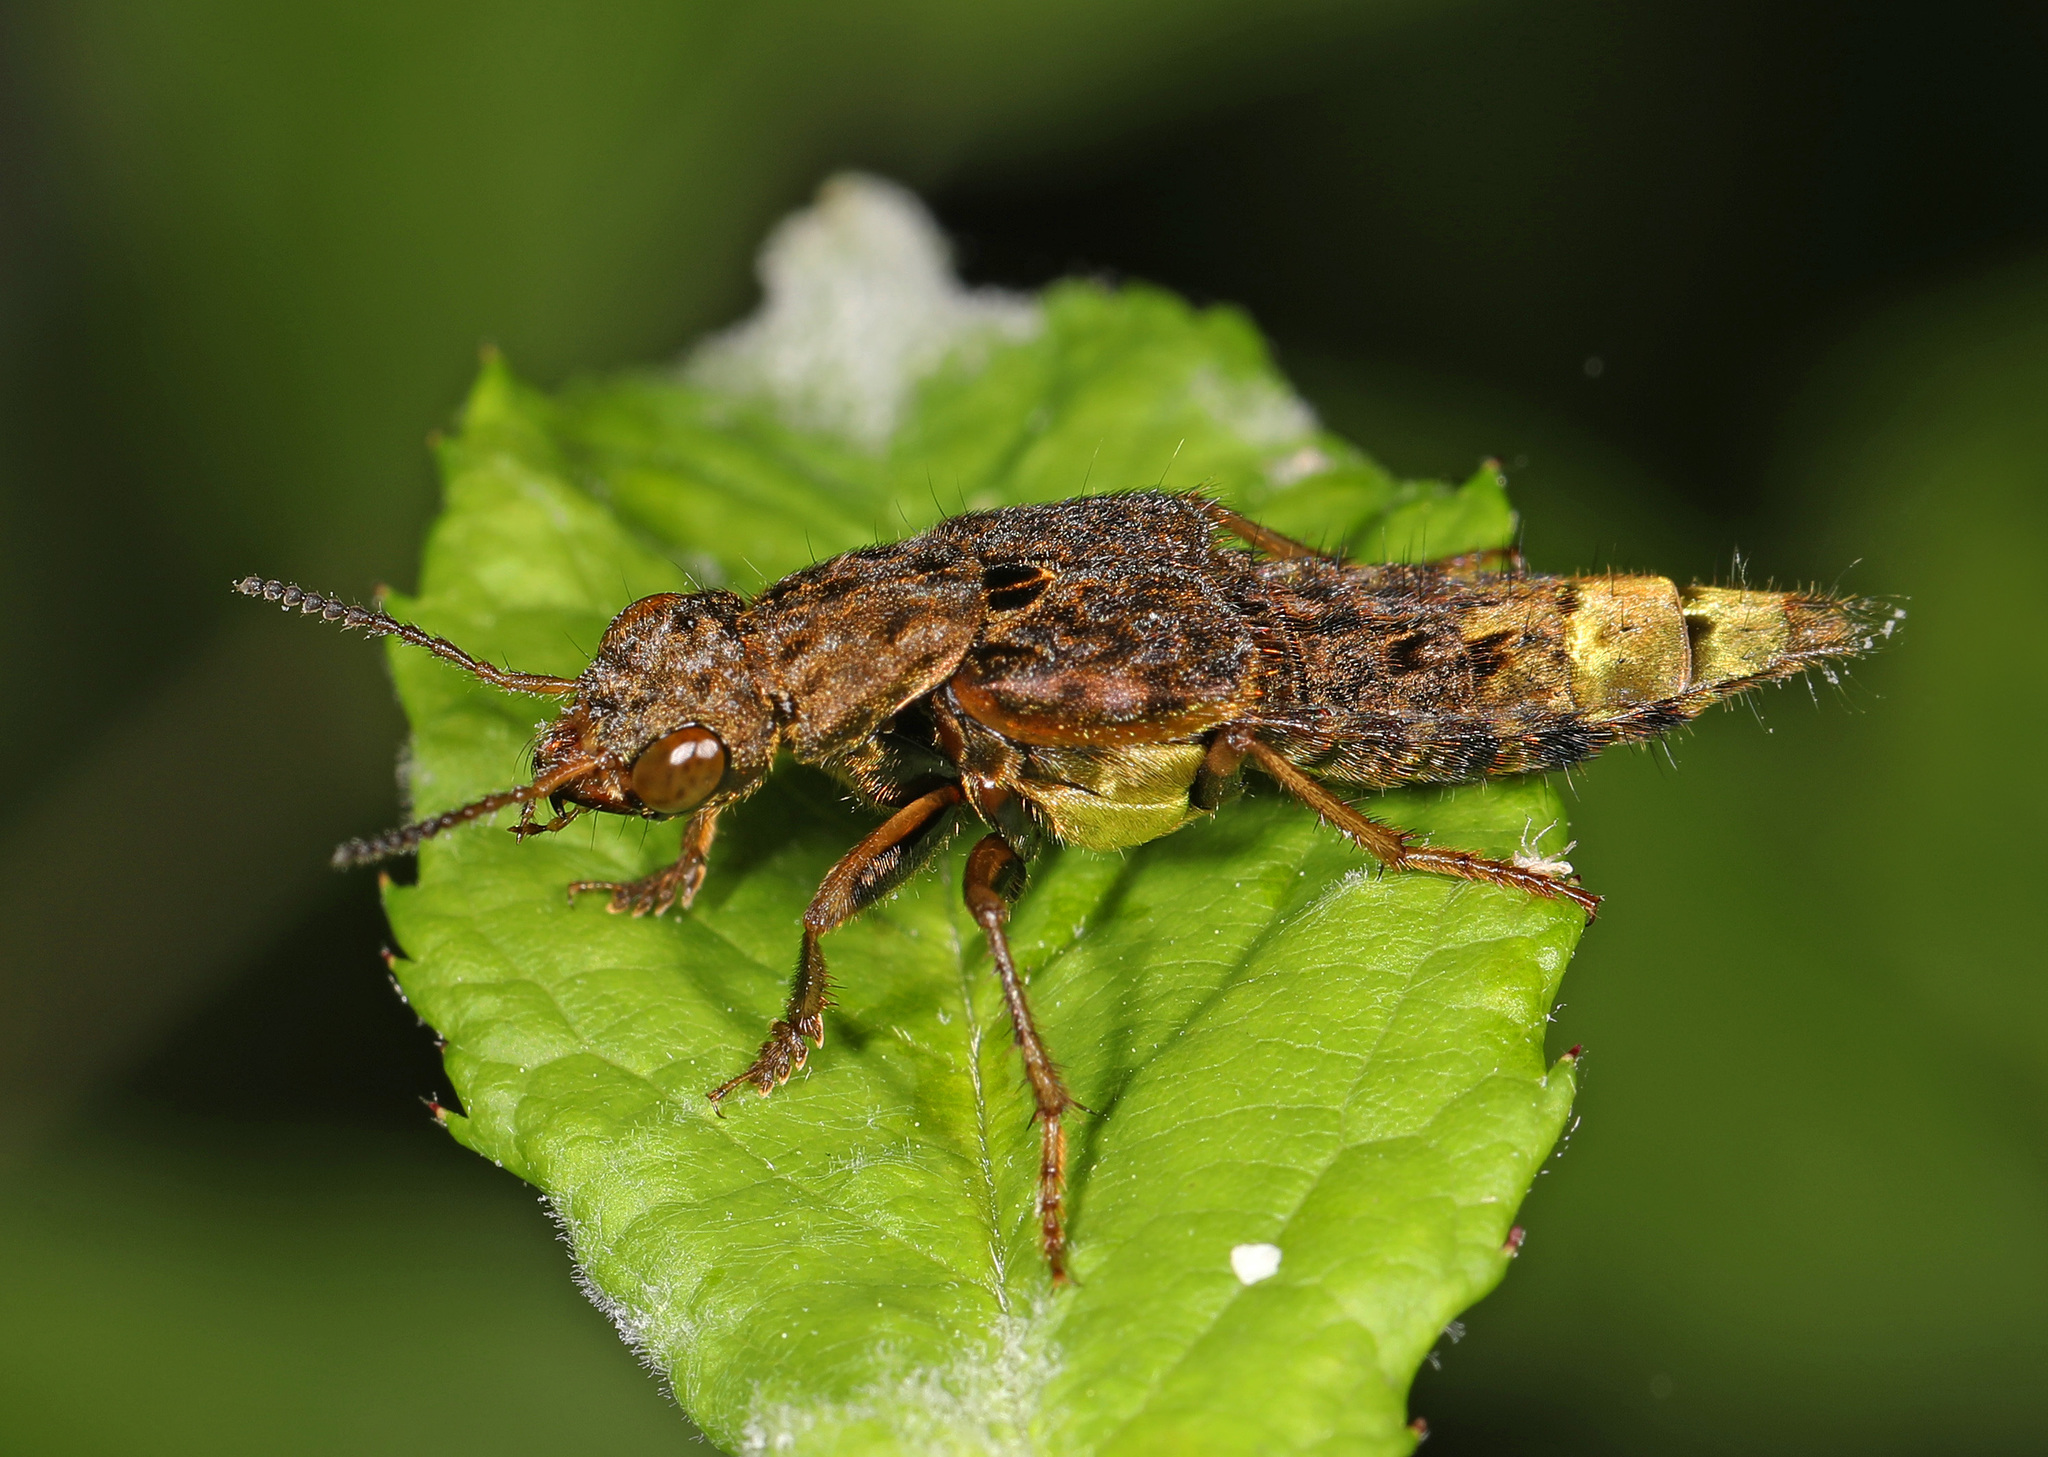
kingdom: Animalia
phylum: Arthropoda
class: Insecta
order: Coleoptera
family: Staphylinidae
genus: Ontholestes
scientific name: Ontholestes cingulatus
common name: Gold-and-brown rove beetle
